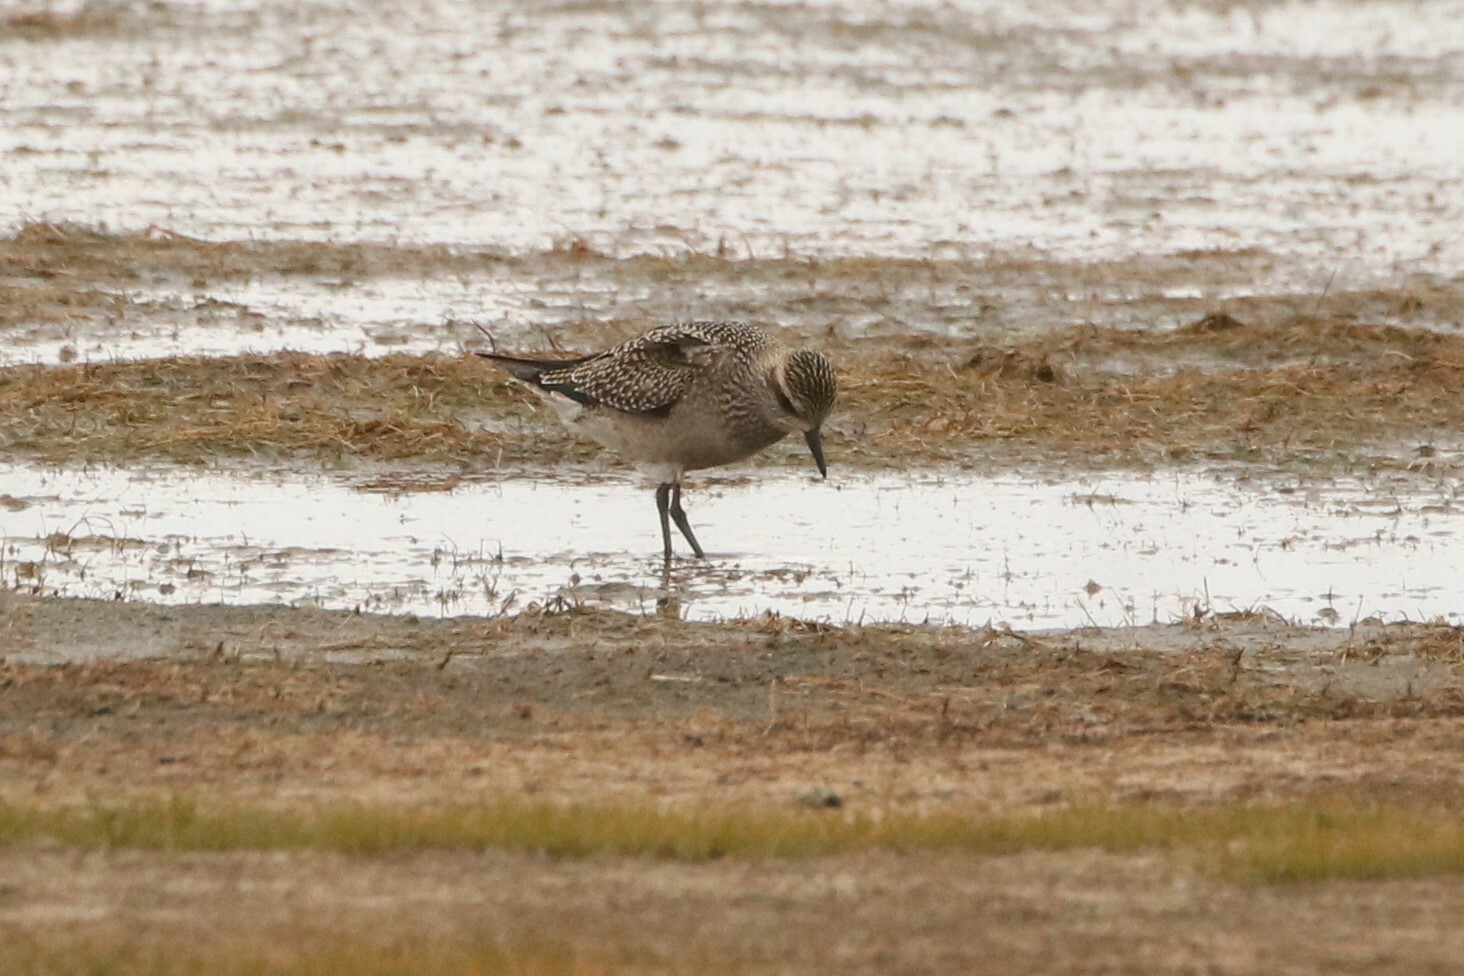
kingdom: Animalia
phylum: Chordata
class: Aves
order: Charadriiformes
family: Charadriidae
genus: Pluvialis
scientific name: Pluvialis dominica
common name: American golden plover
